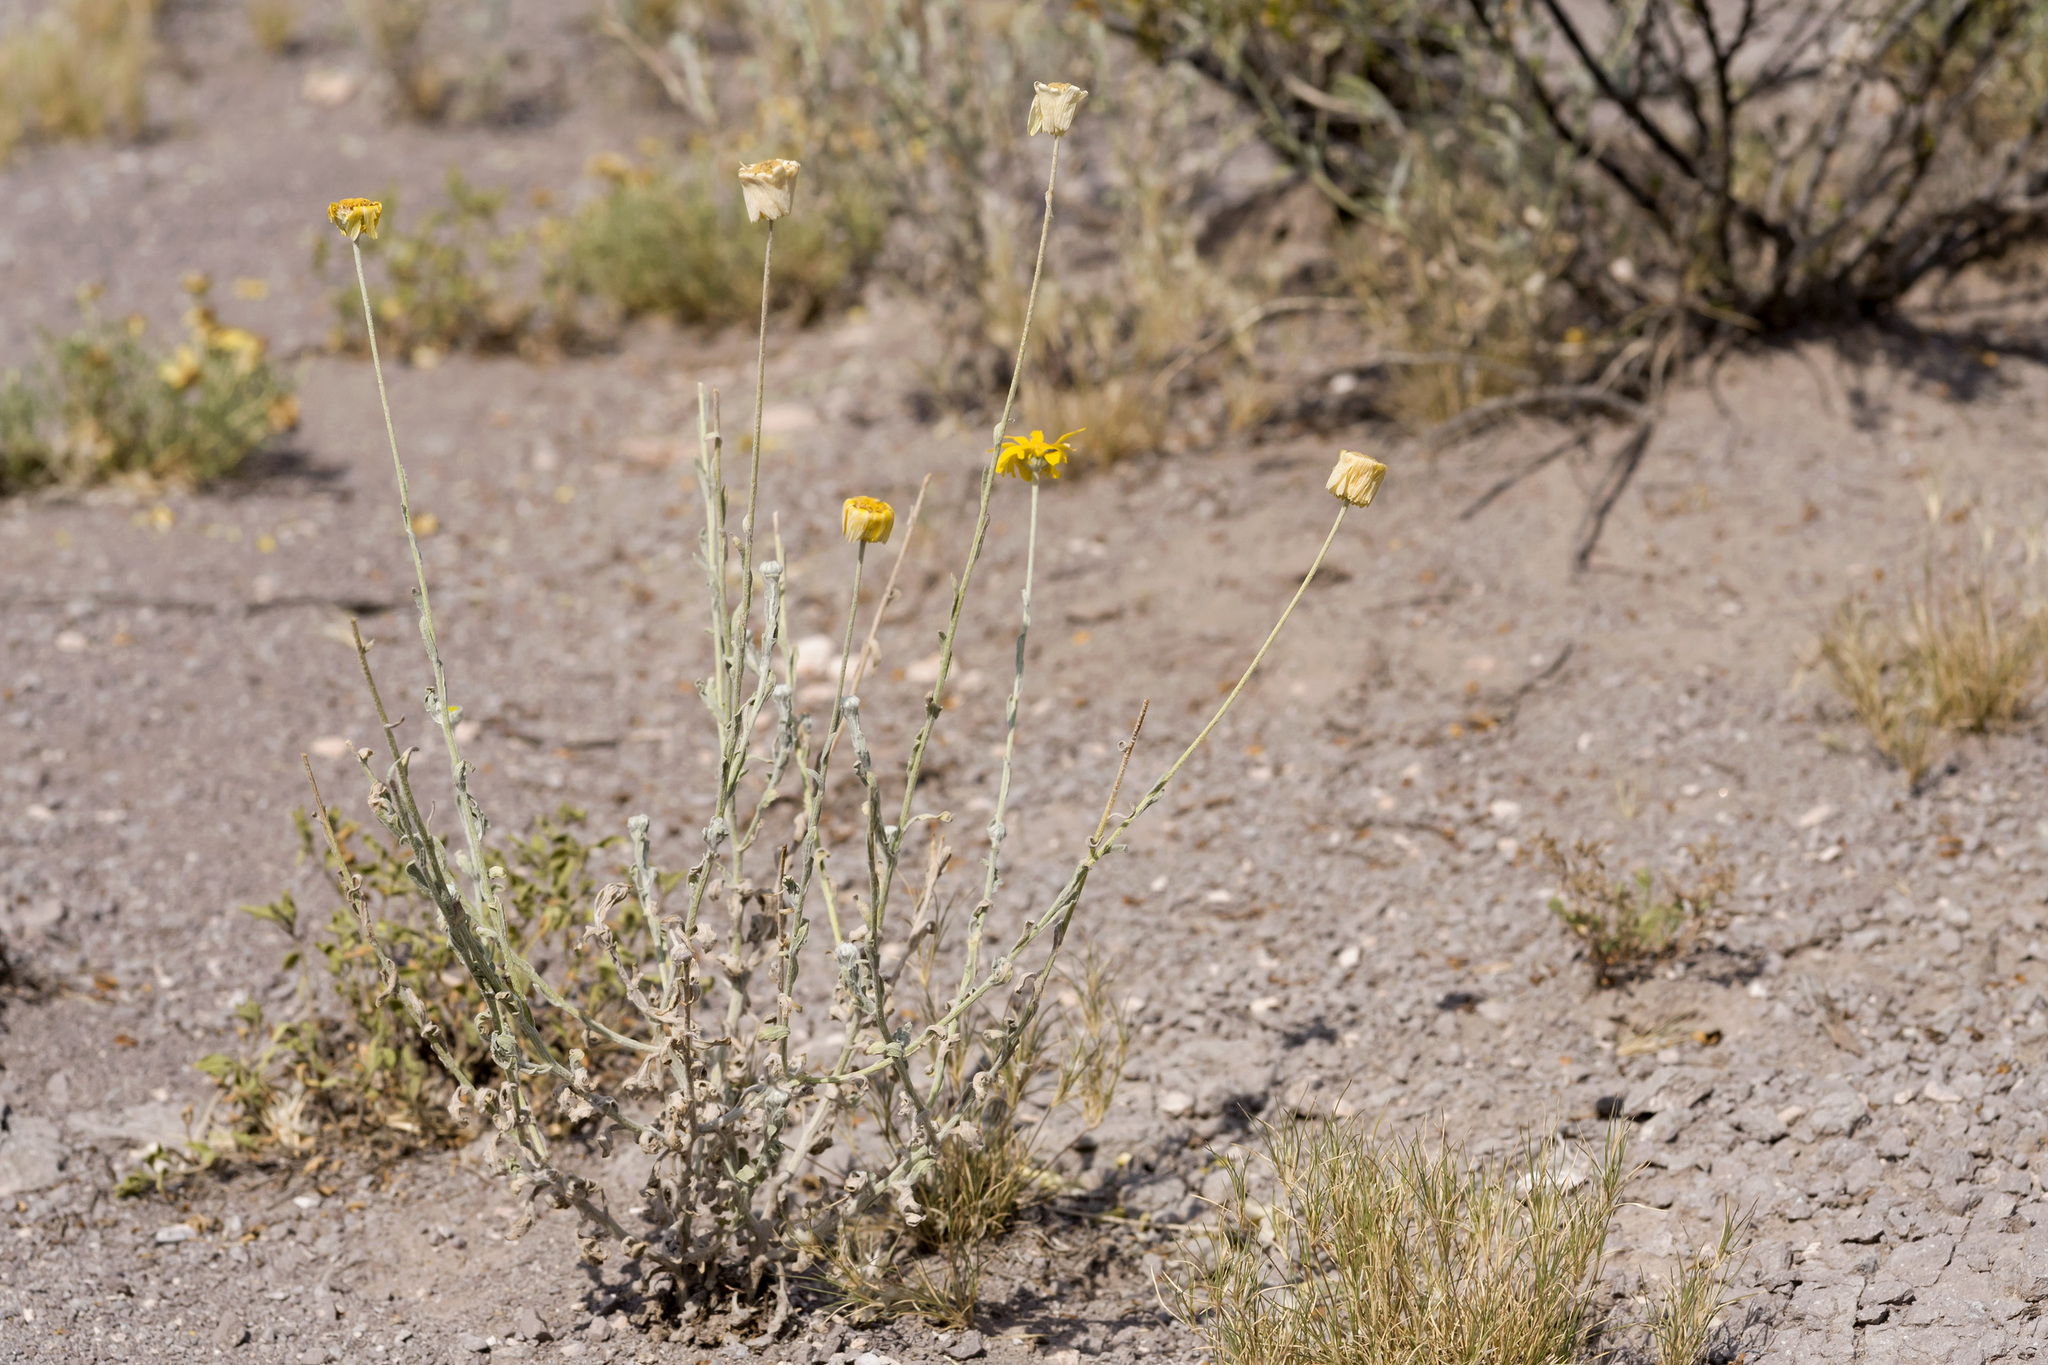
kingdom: Plantae
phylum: Tracheophyta
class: Magnoliopsida
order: Asterales
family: Asteraceae
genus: Baileya
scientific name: Baileya multiradiata
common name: Desert-marigold
